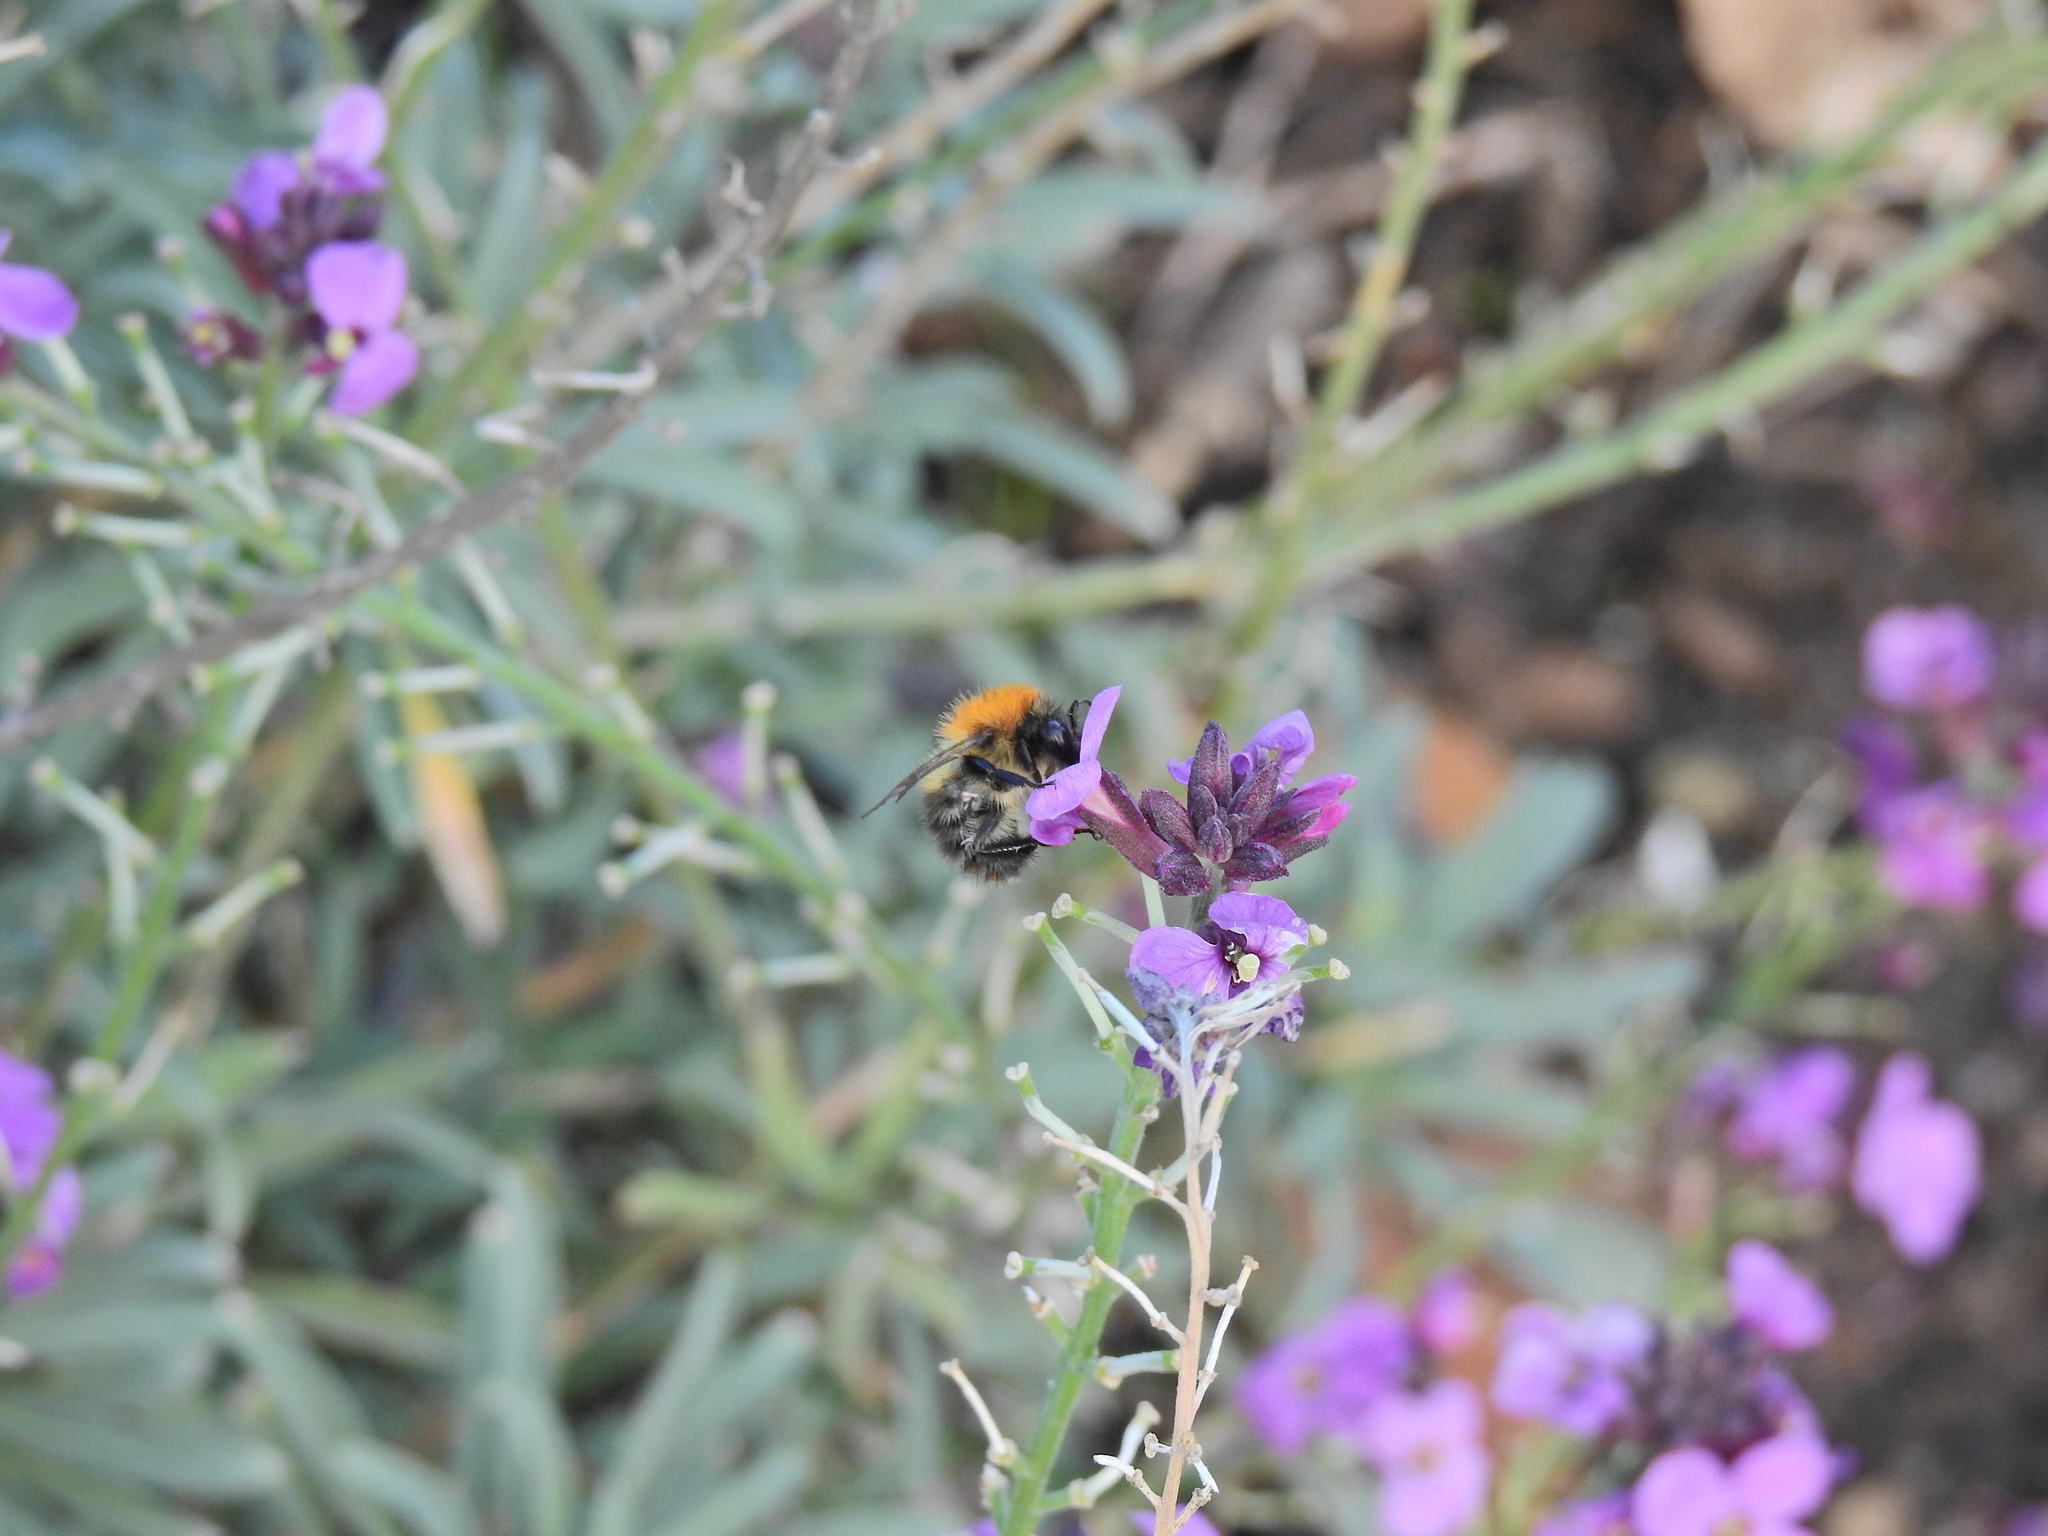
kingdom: Animalia
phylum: Arthropoda
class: Insecta
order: Hymenoptera
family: Apidae
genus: Bombus
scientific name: Bombus pascuorum
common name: Common carder bee
